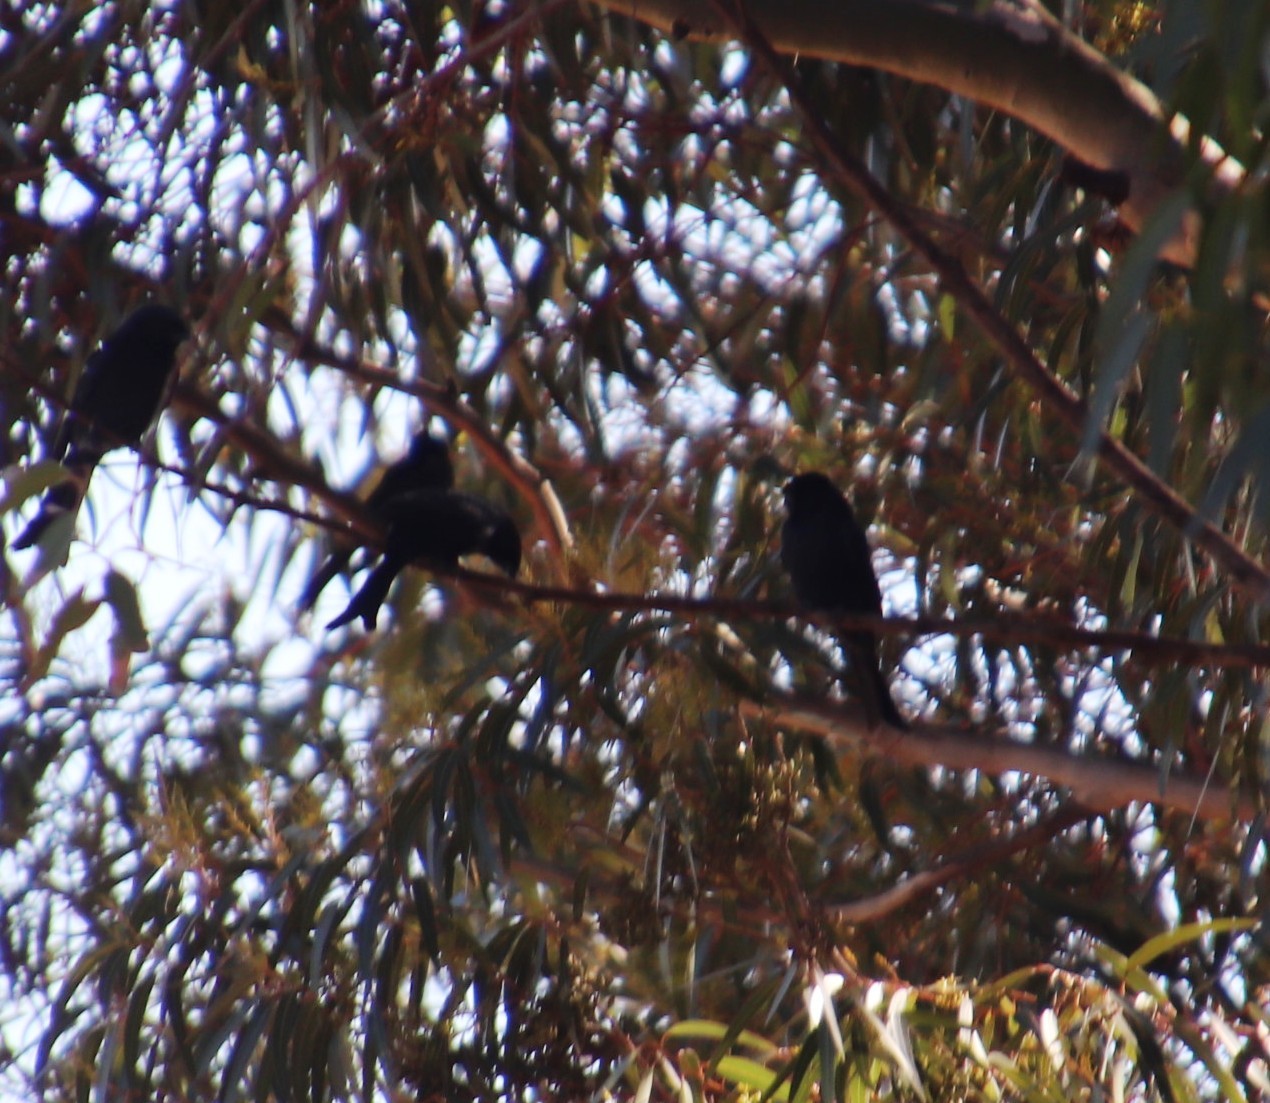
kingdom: Animalia
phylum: Chordata
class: Aves
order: Passeriformes
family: Dicruridae
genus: Dicrurus
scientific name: Dicrurus adsimilis
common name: Fork-tailed drongo
